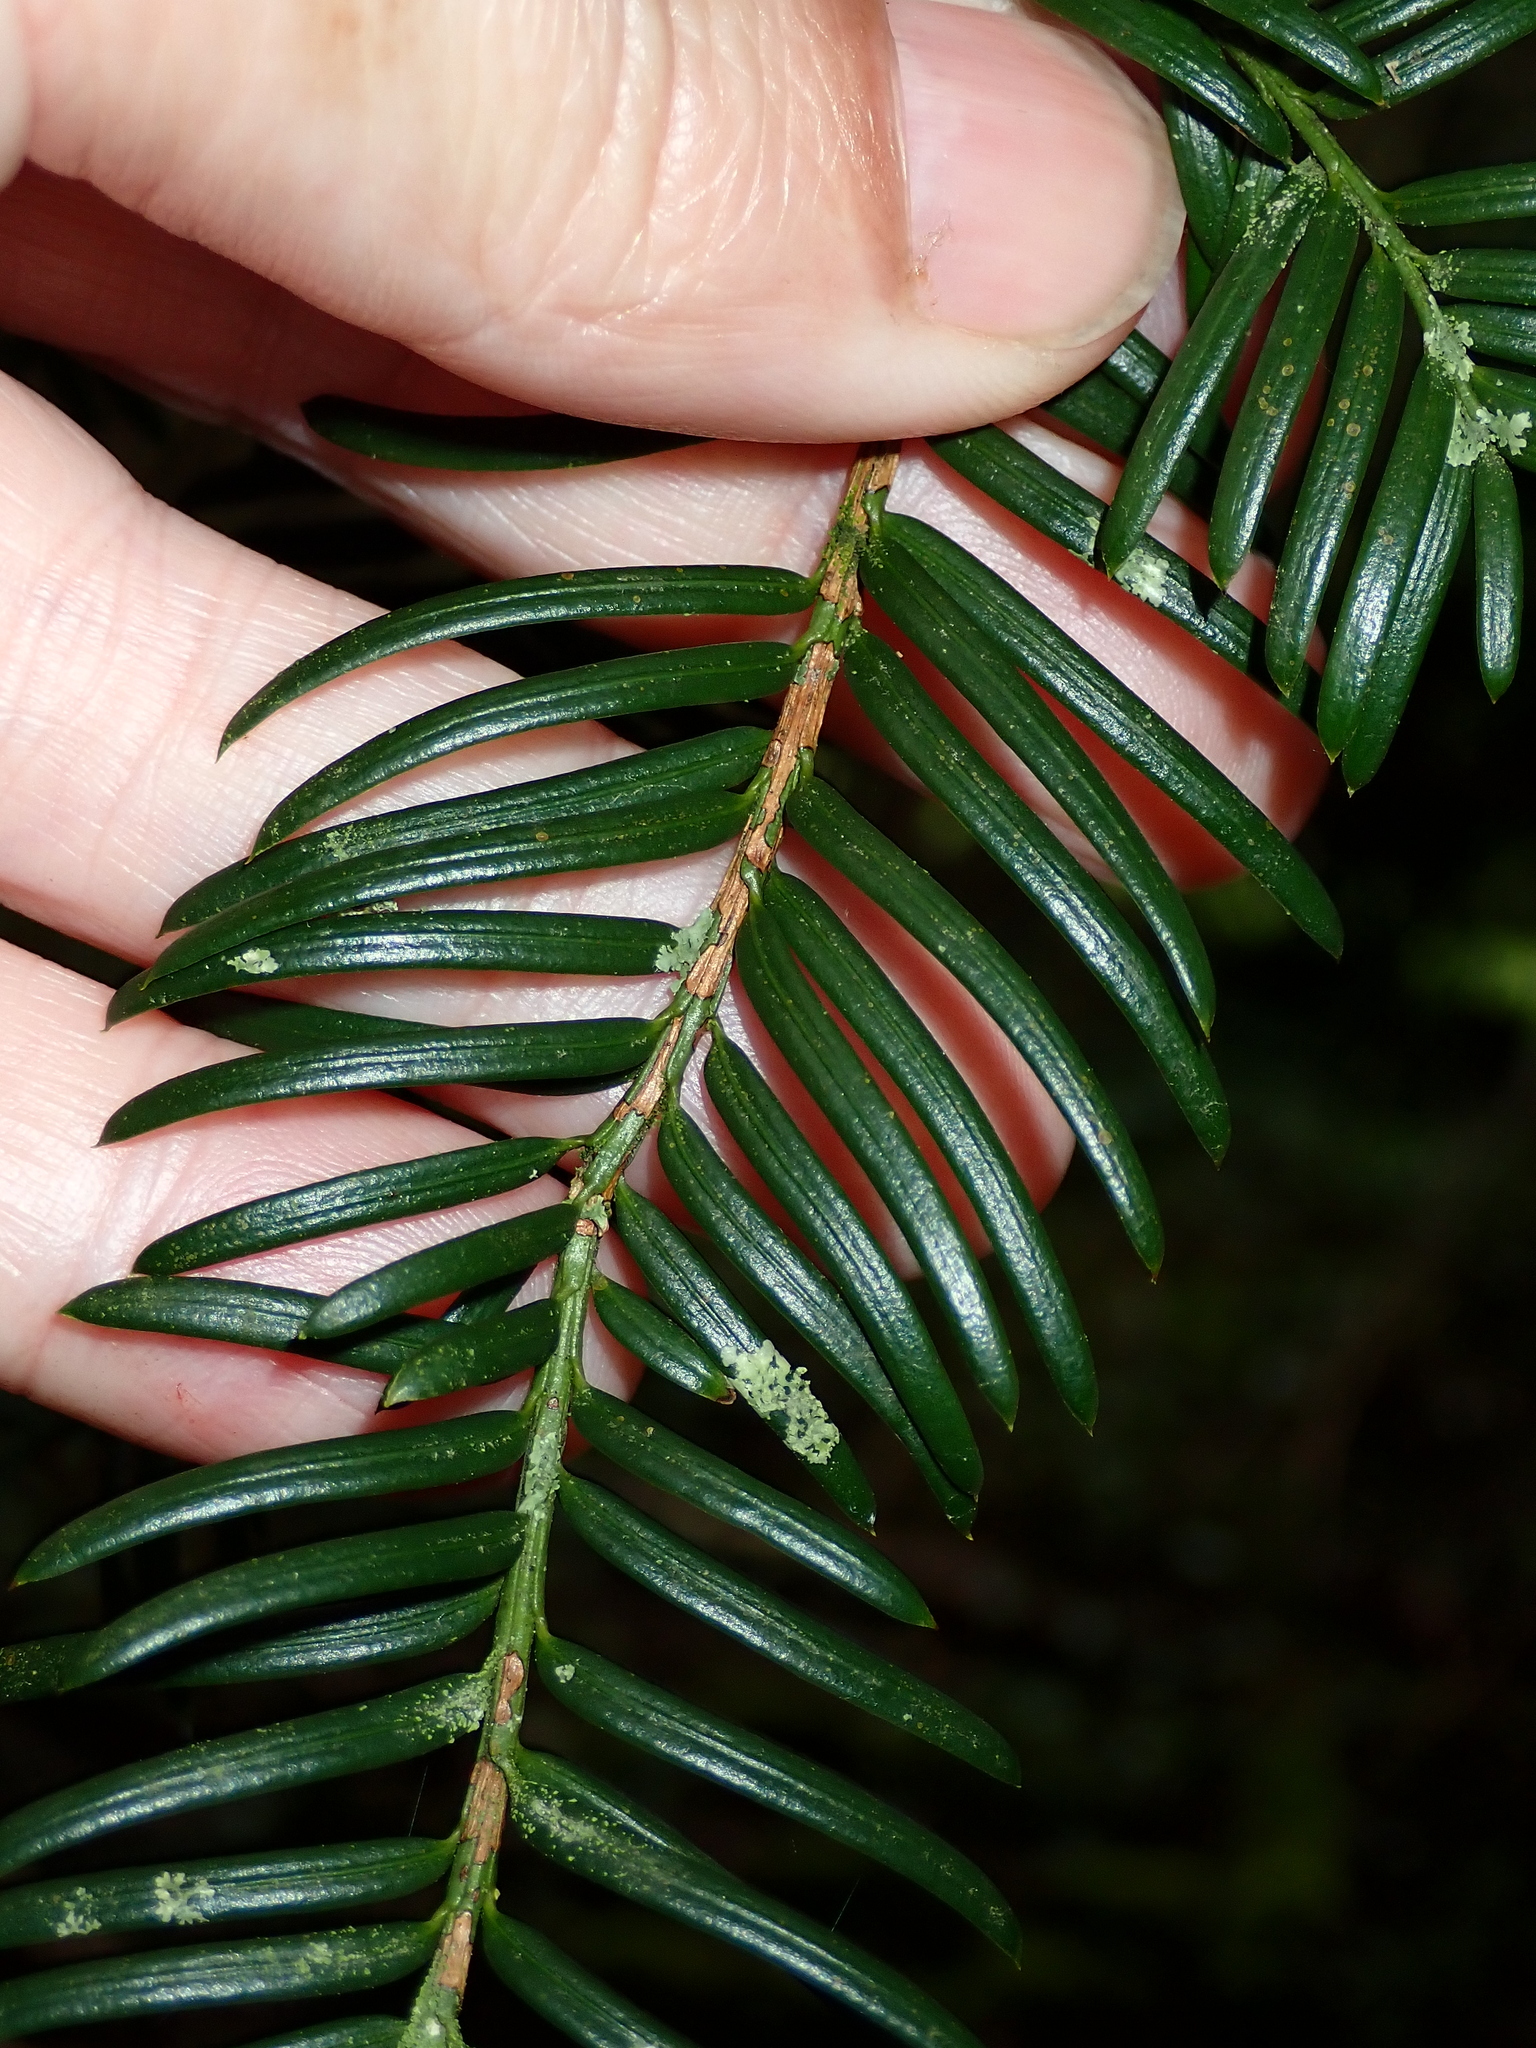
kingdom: Plantae
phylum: Tracheophyta
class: Pinopsida
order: Pinales
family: Taxaceae
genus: Taxus
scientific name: Taxus baccata
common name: Yew
